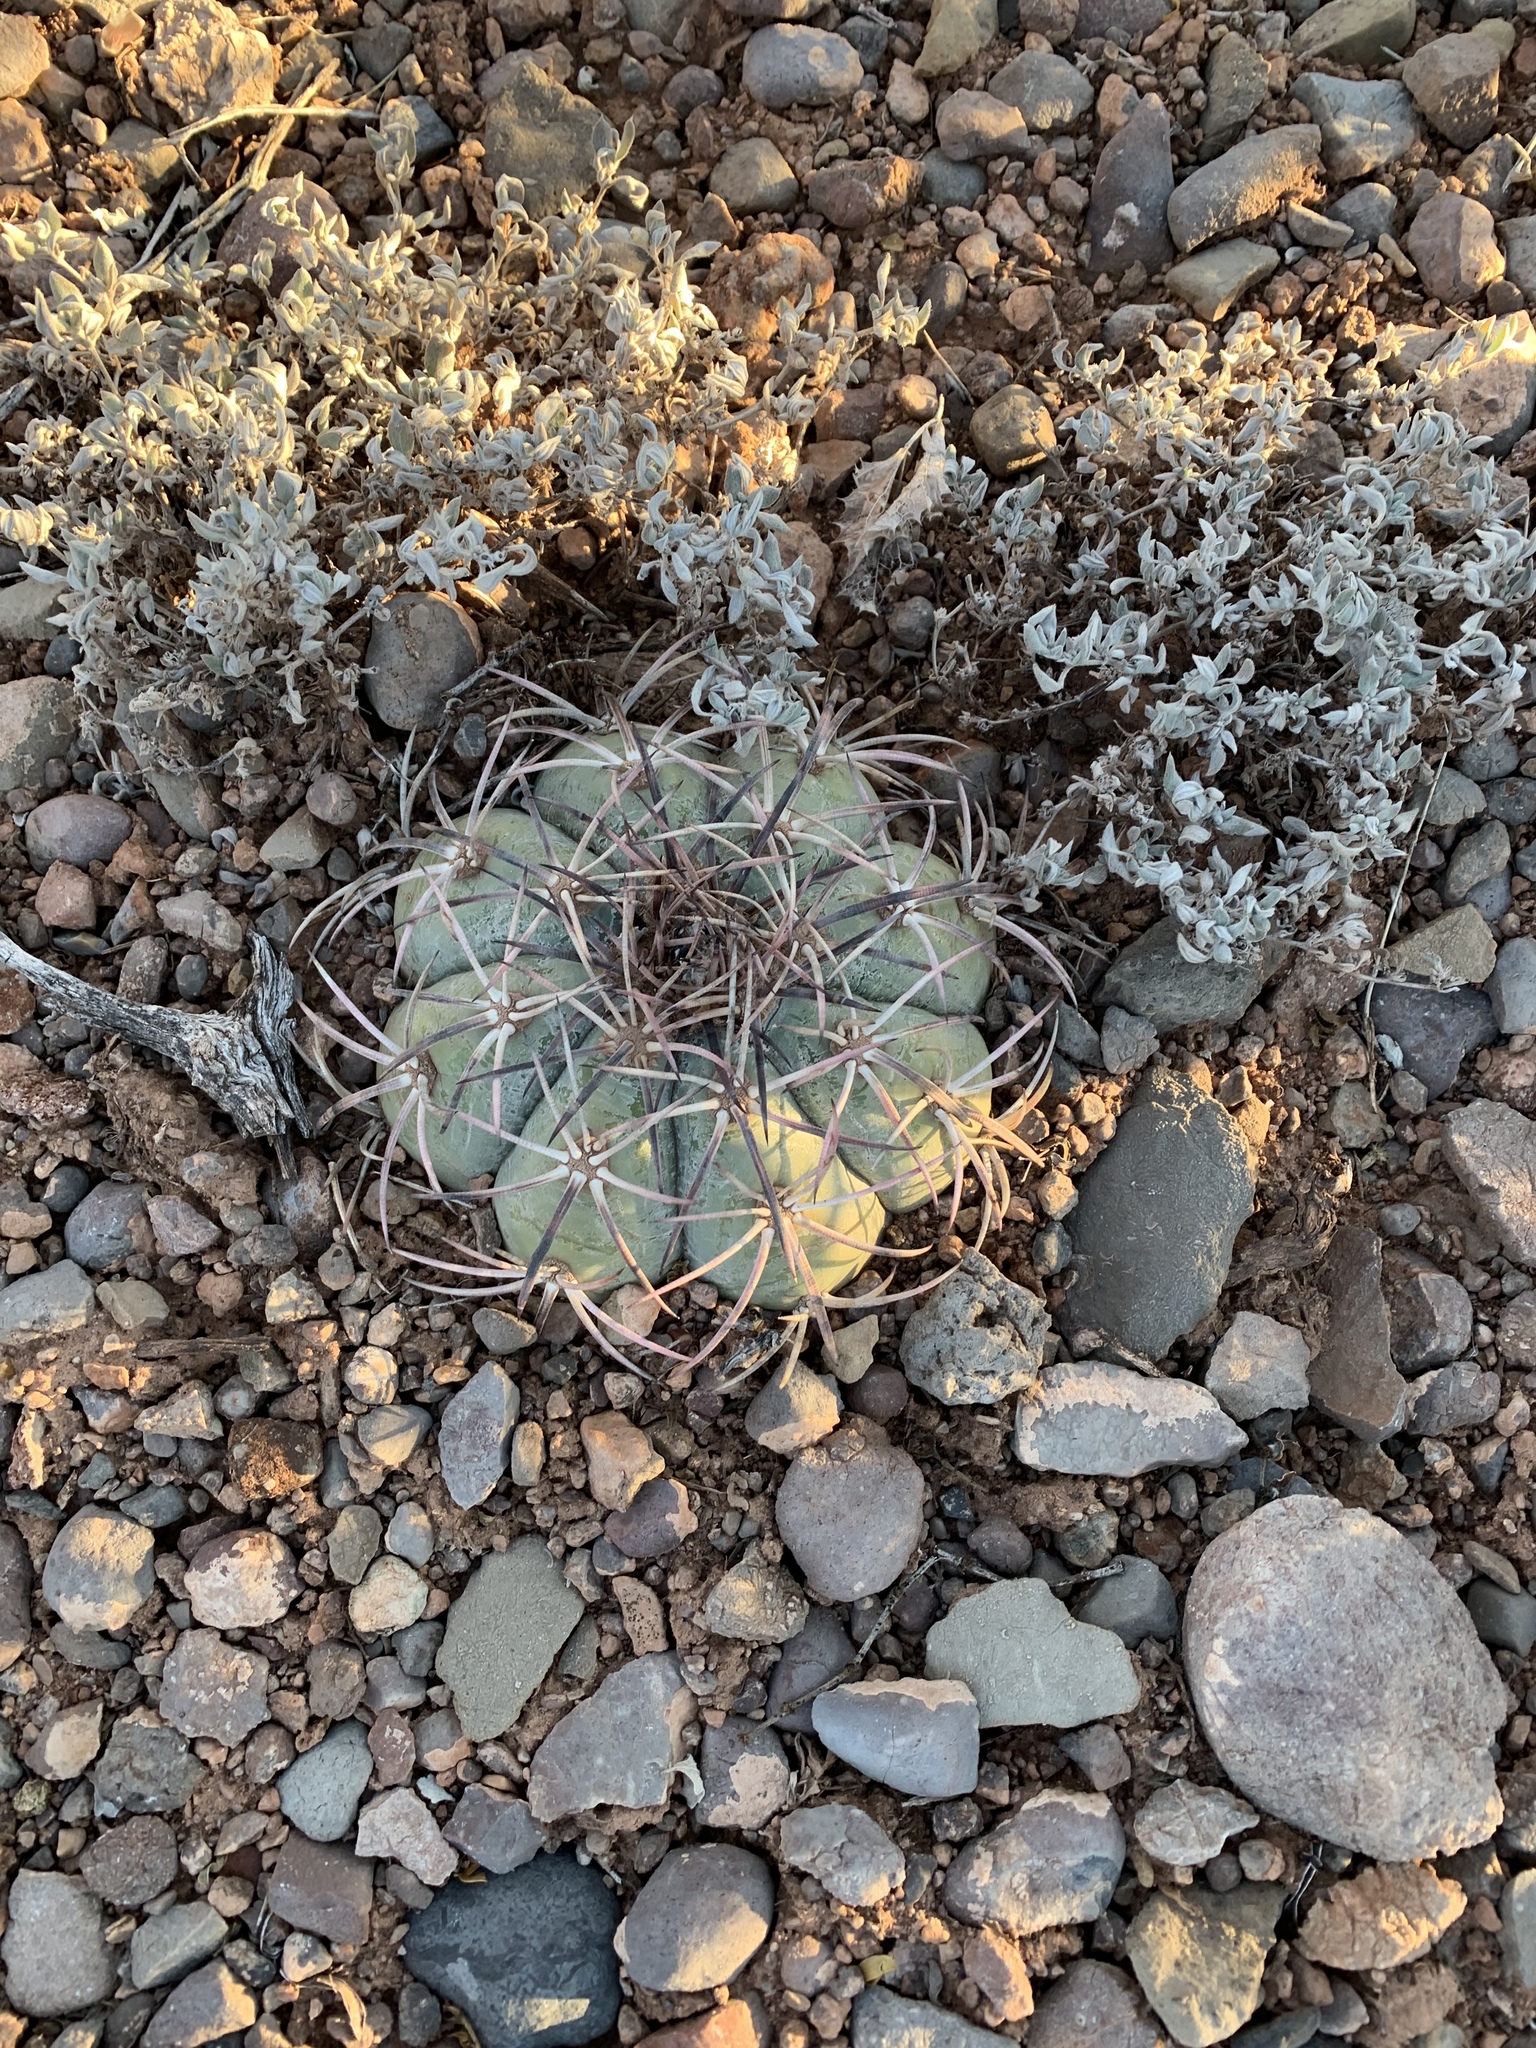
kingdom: Plantae
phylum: Tracheophyta
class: Magnoliopsida
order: Caryophyllales
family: Cactaceae
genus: Echinocactus
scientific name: Echinocactus horizonthalonius
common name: Devilshead
